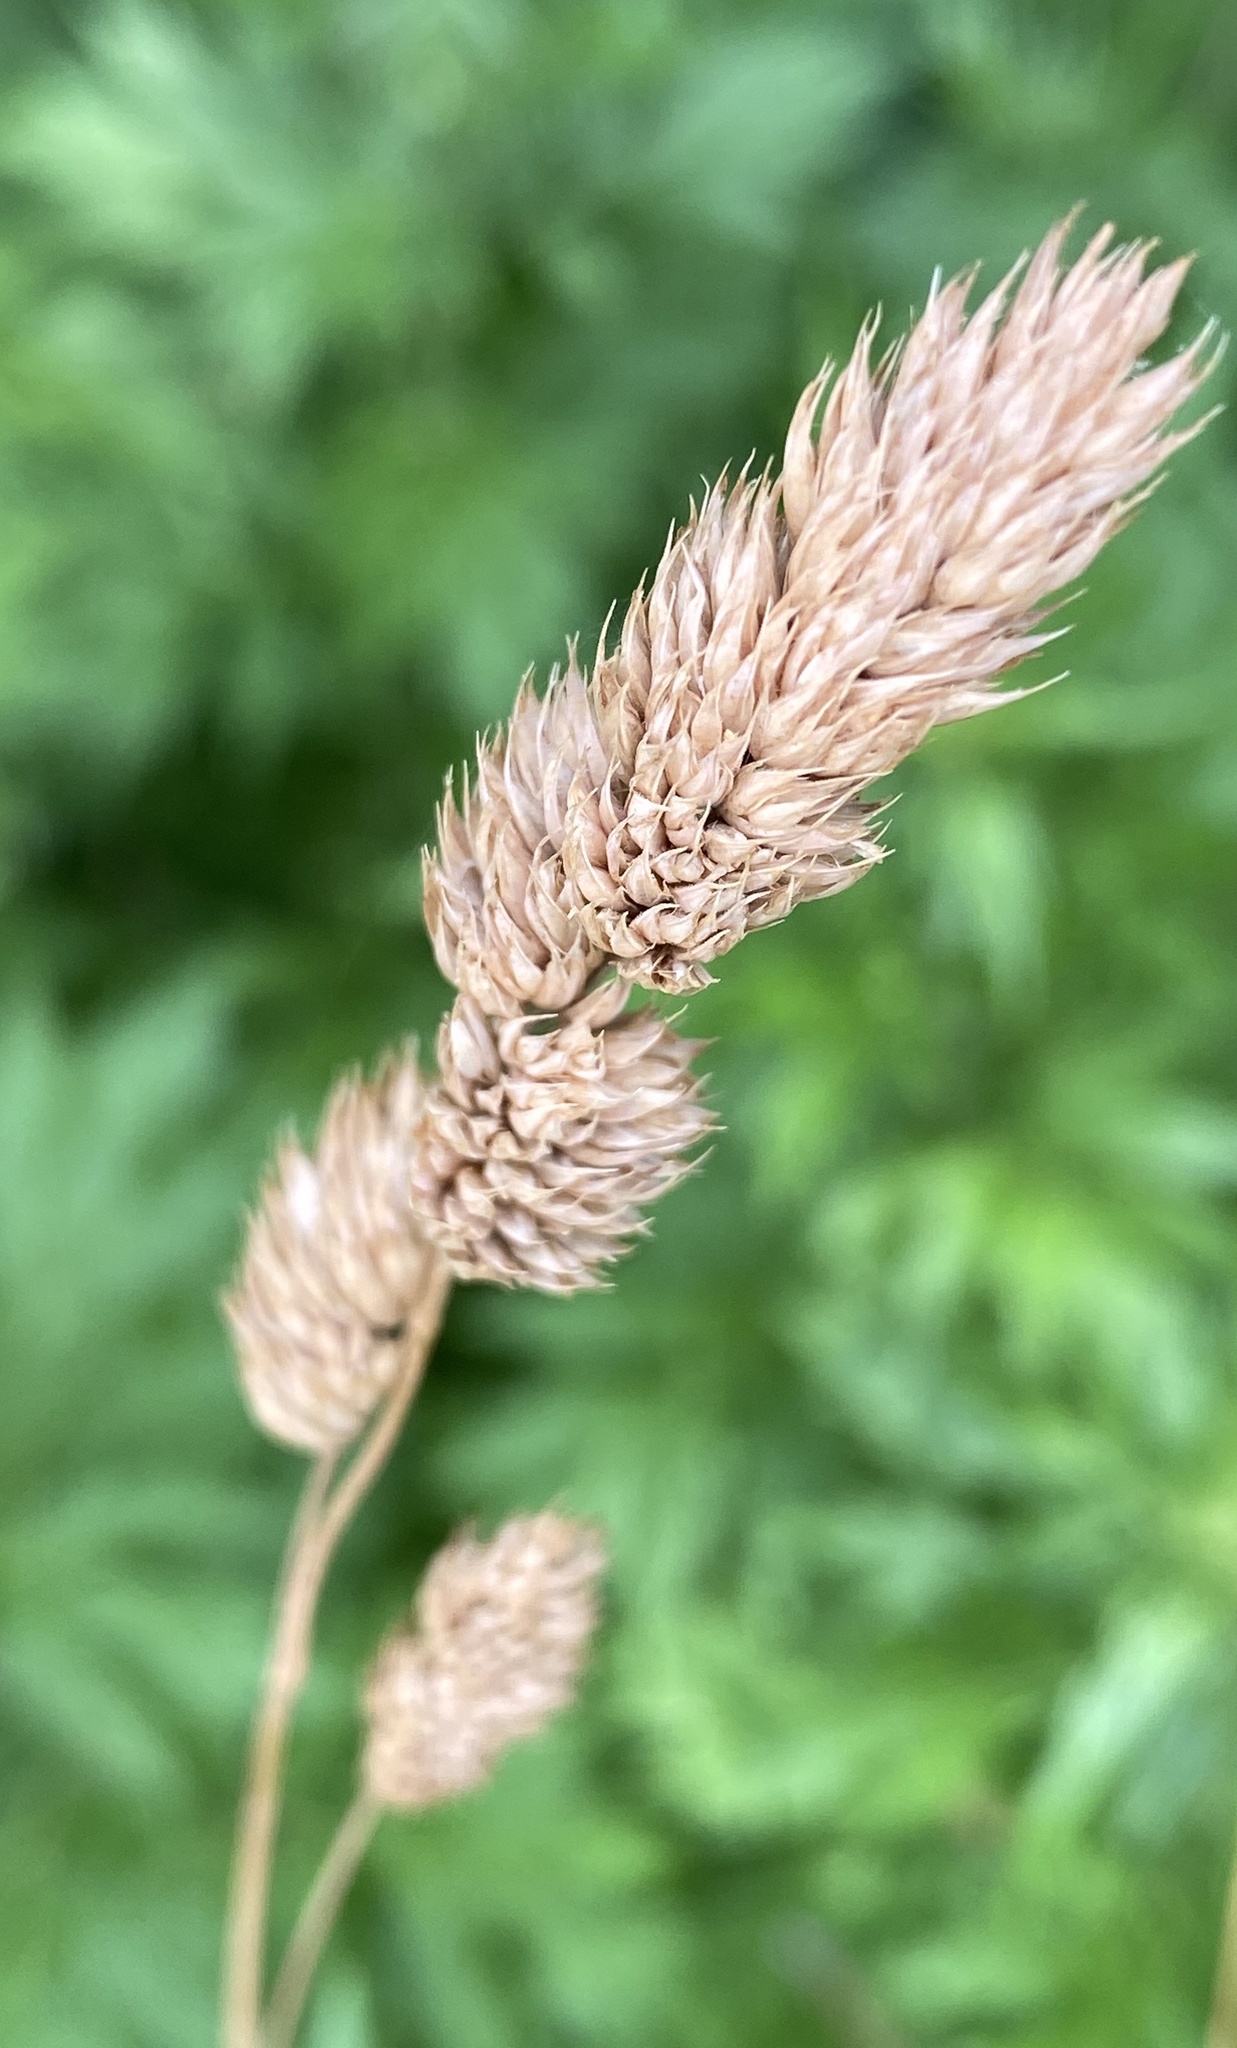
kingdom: Plantae
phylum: Tracheophyta
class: Liliopsida
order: Poales
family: Poaceae
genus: Dactylis
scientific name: Dactylis glomerata
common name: Orchardgrass
